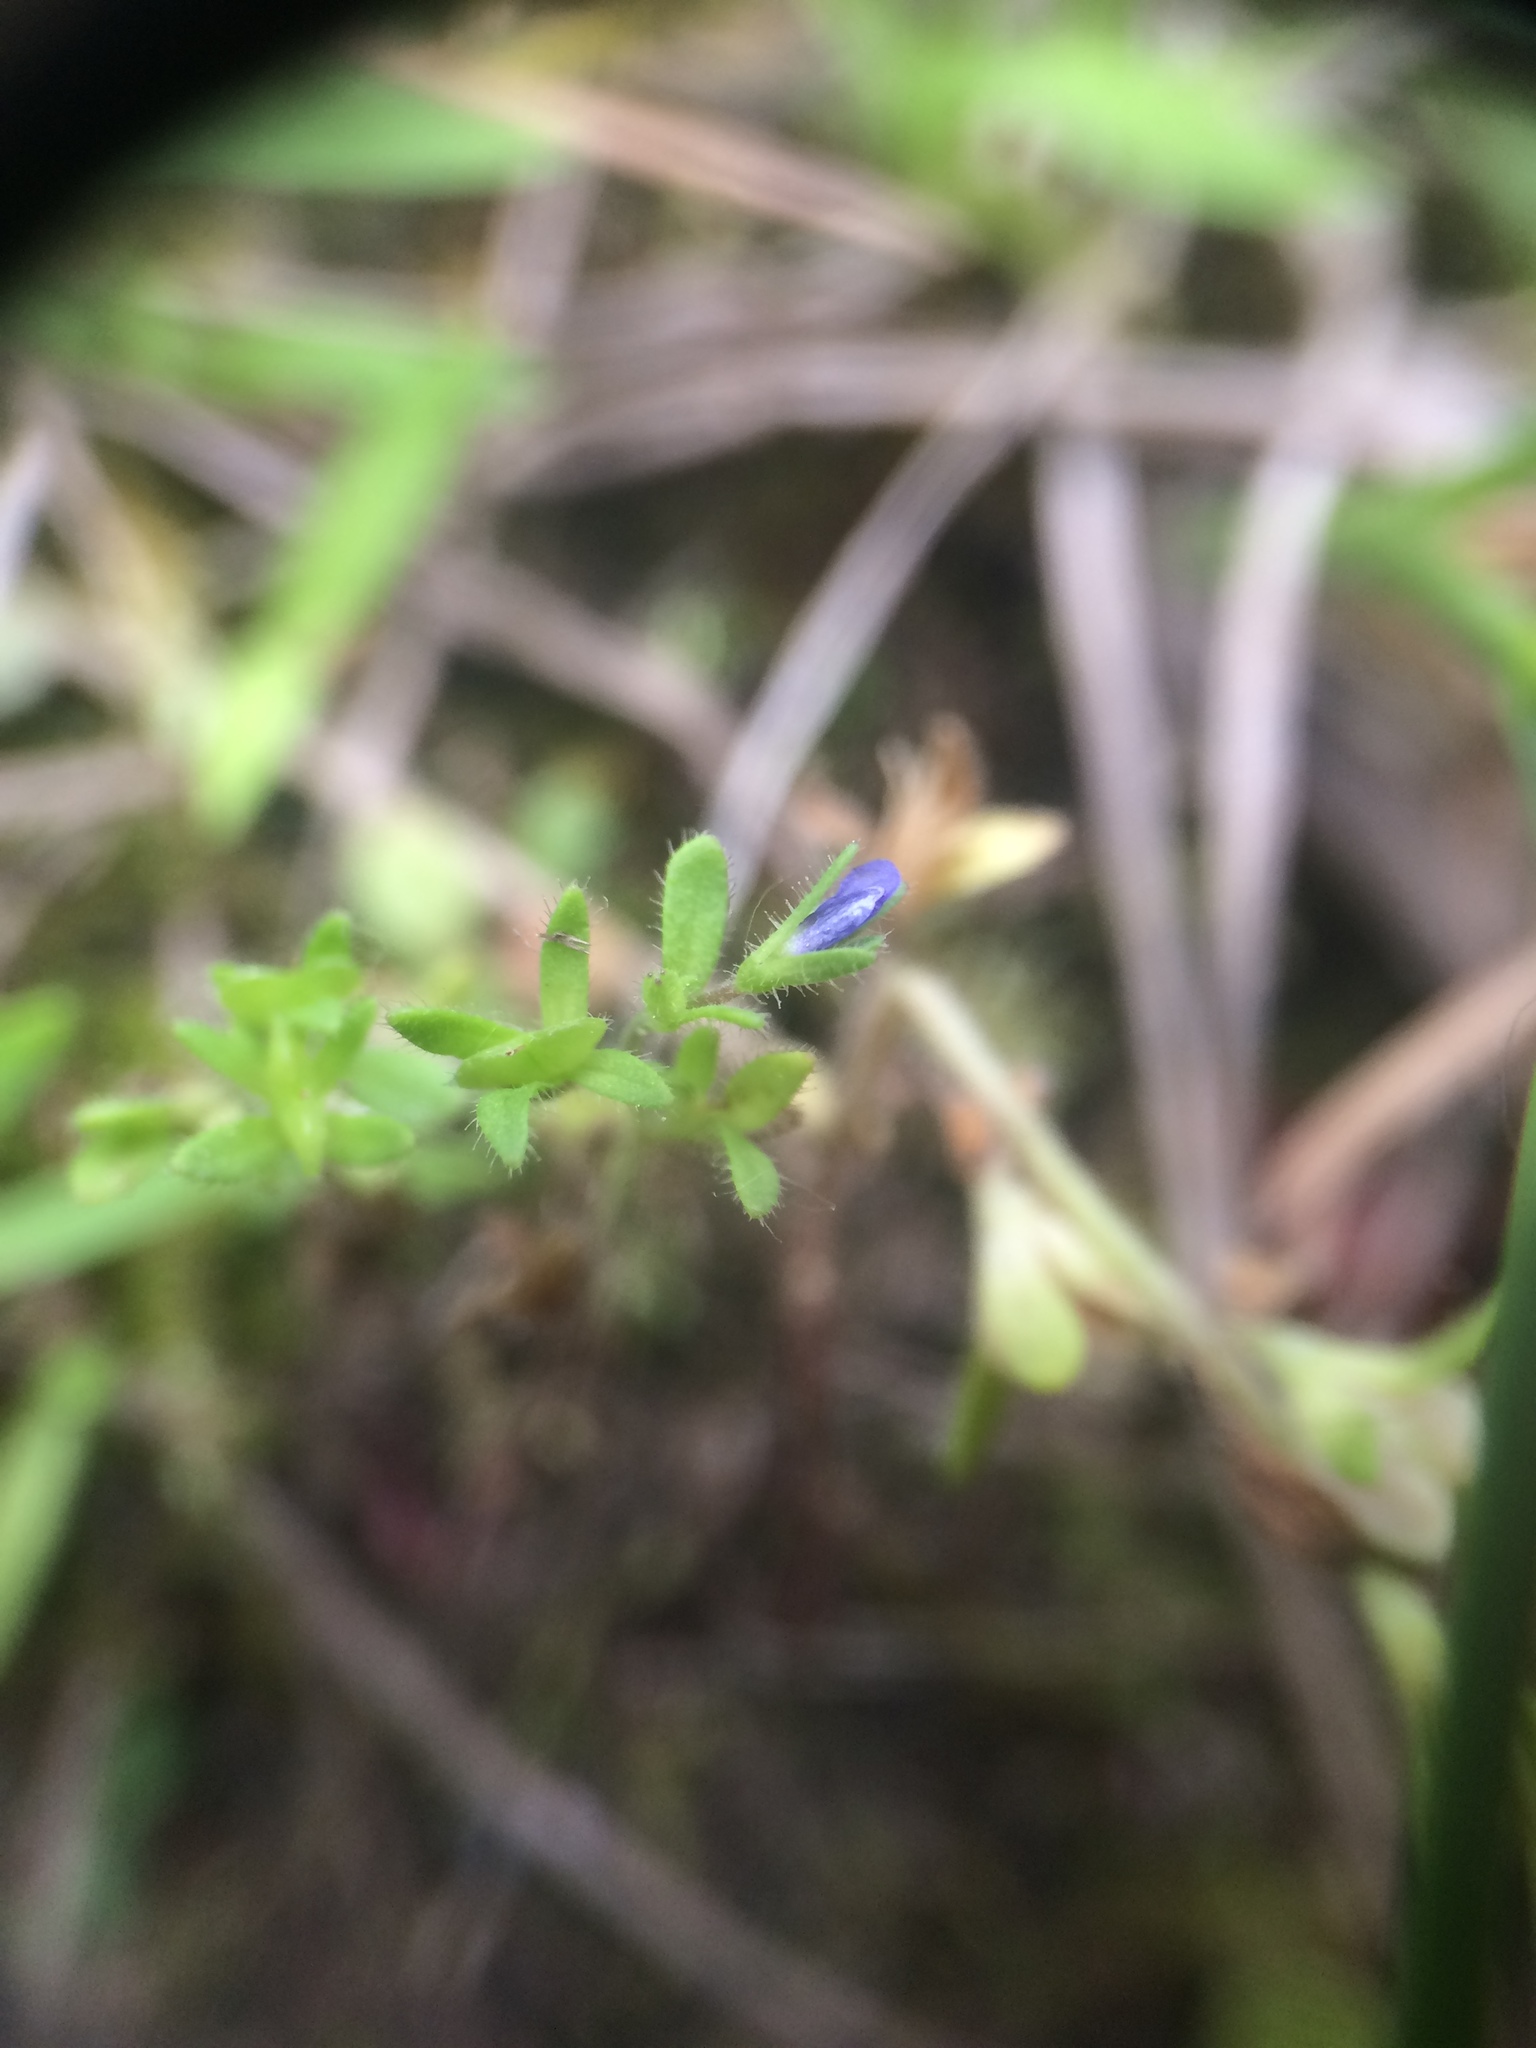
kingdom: Plantae
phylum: Tracheophyta
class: Magnoliopsida
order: Lamiales
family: Plantaginaceae
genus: Veronica
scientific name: Veronica arvensis
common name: Corn speedwell
